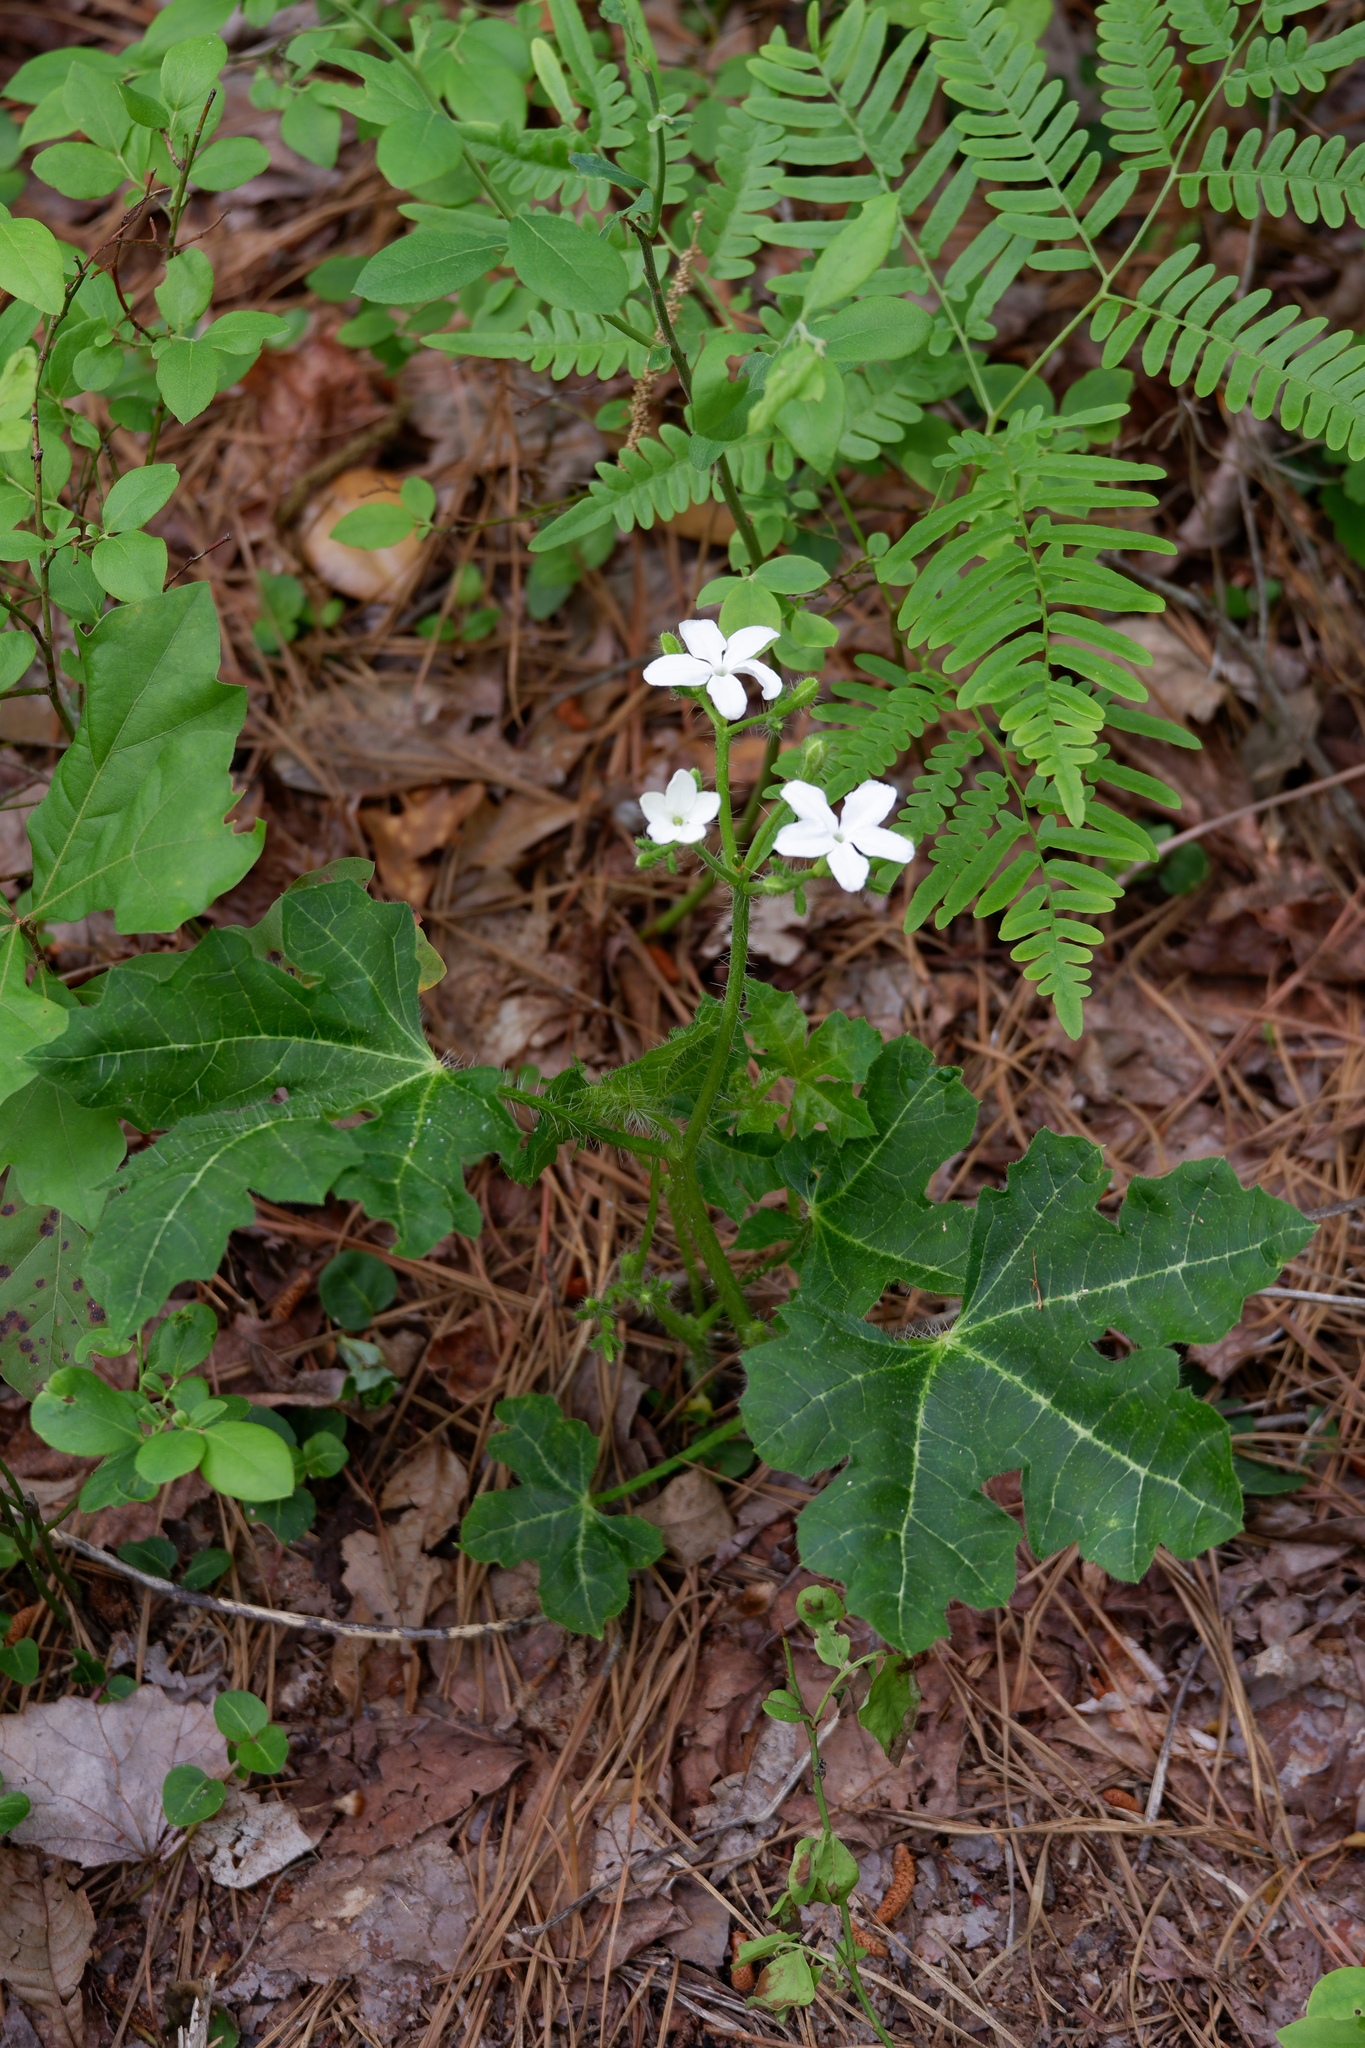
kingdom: Plantae
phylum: Tracheophyta
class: Magnoliopsida
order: Malpighiales
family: Euphorbiaceae
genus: Cnidoscolus
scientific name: Cnidoscolus stimulosus
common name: Bull-nettle
